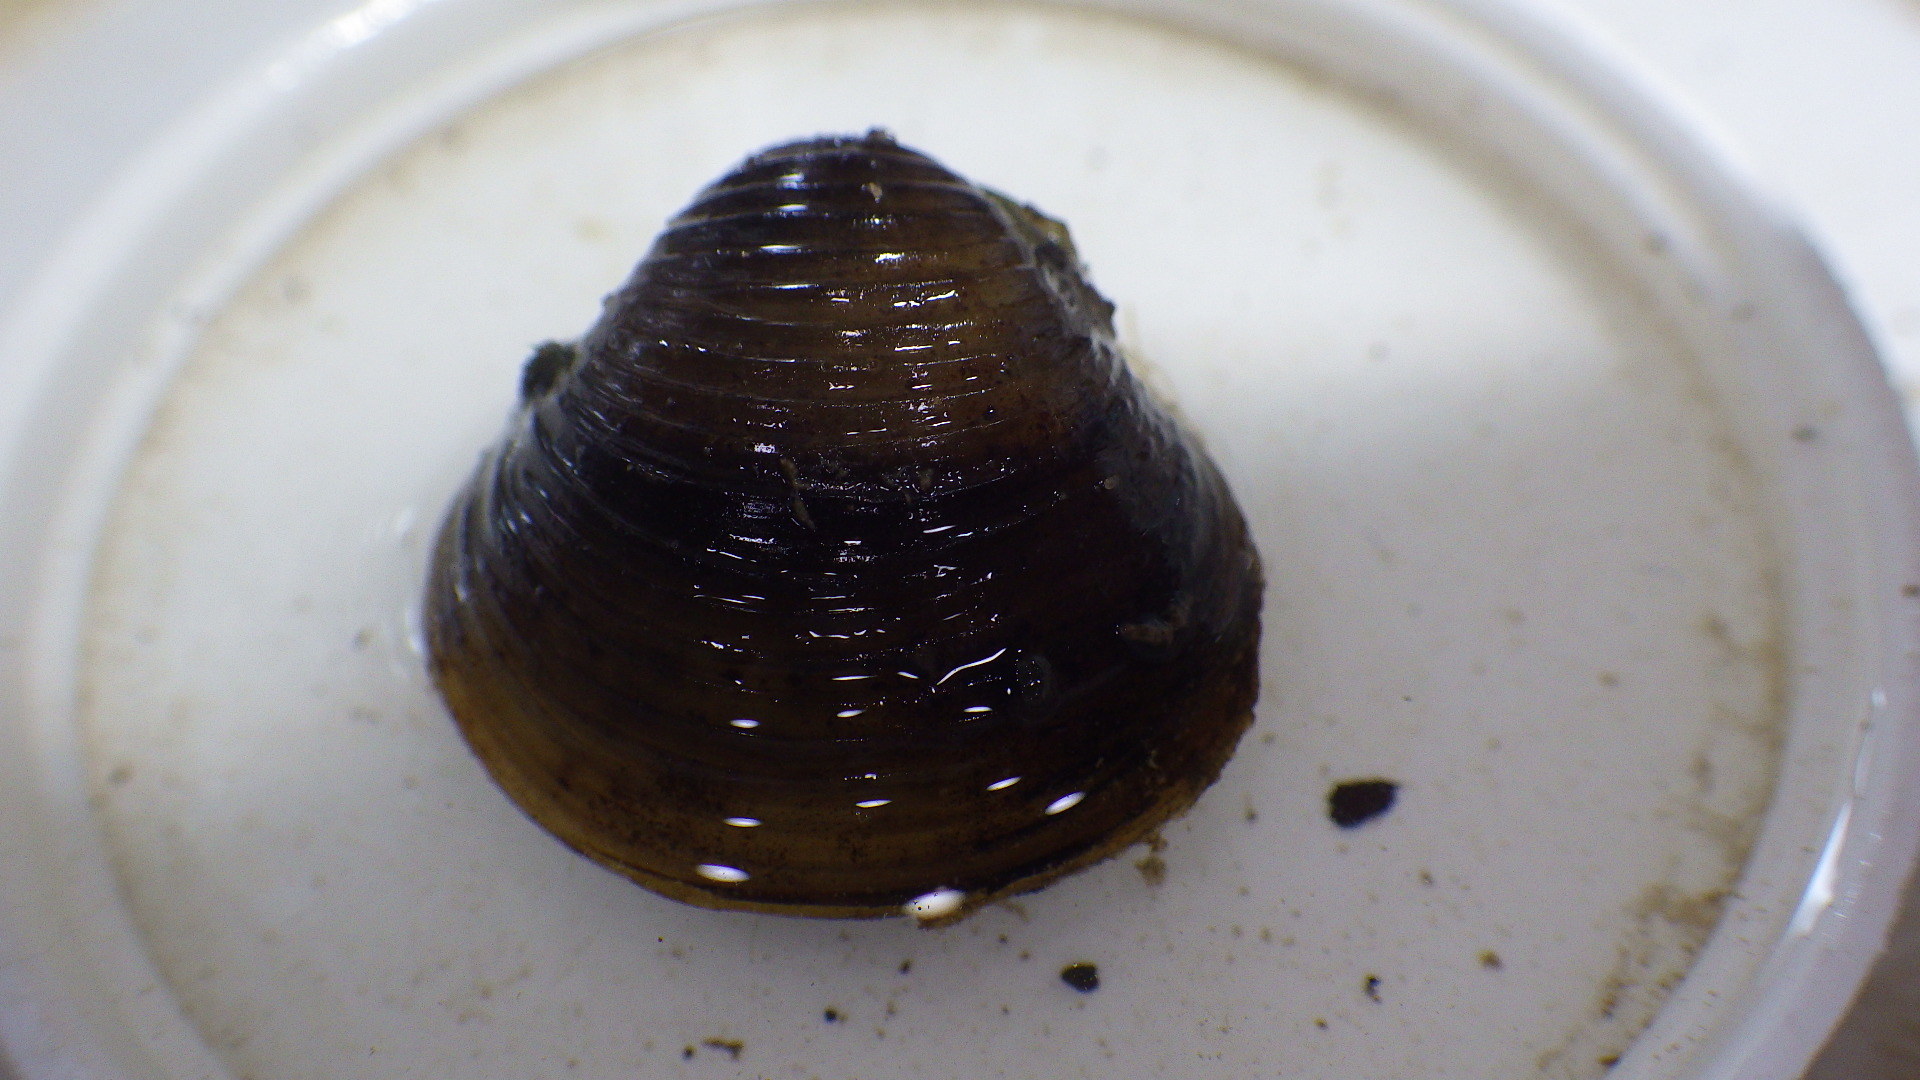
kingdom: Animalia
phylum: Mollusca
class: Bivalvia
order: Venerida
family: Cyrenidae
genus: Corbicula
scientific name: Corbicula fluminea
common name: Asian clam
